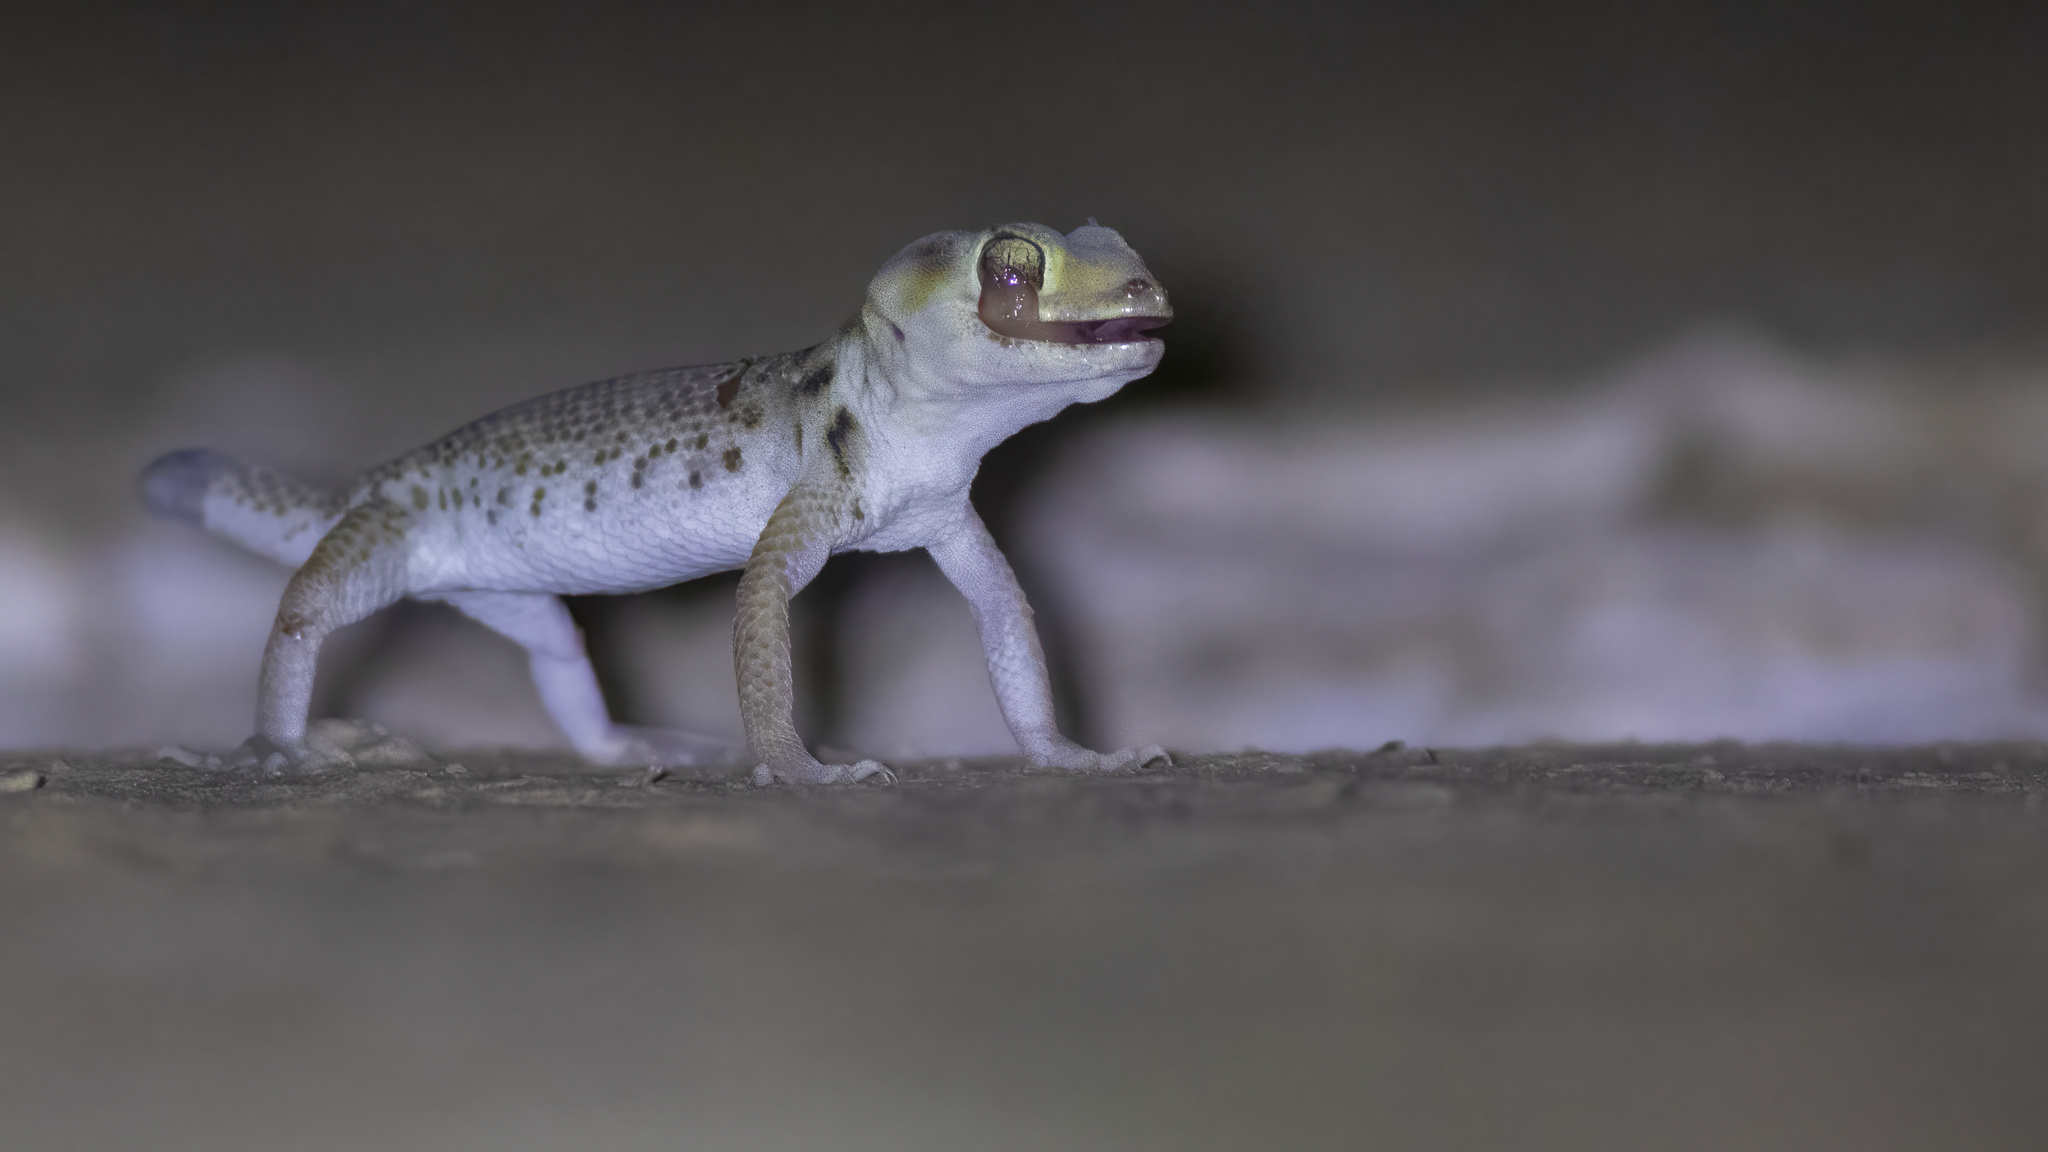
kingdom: Animalia
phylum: Chordata
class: Squamata
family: Sphaerodactylidae
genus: Teratoscincus
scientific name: Teratoscincus przewalskii
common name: Przewalski's wonder gecko
